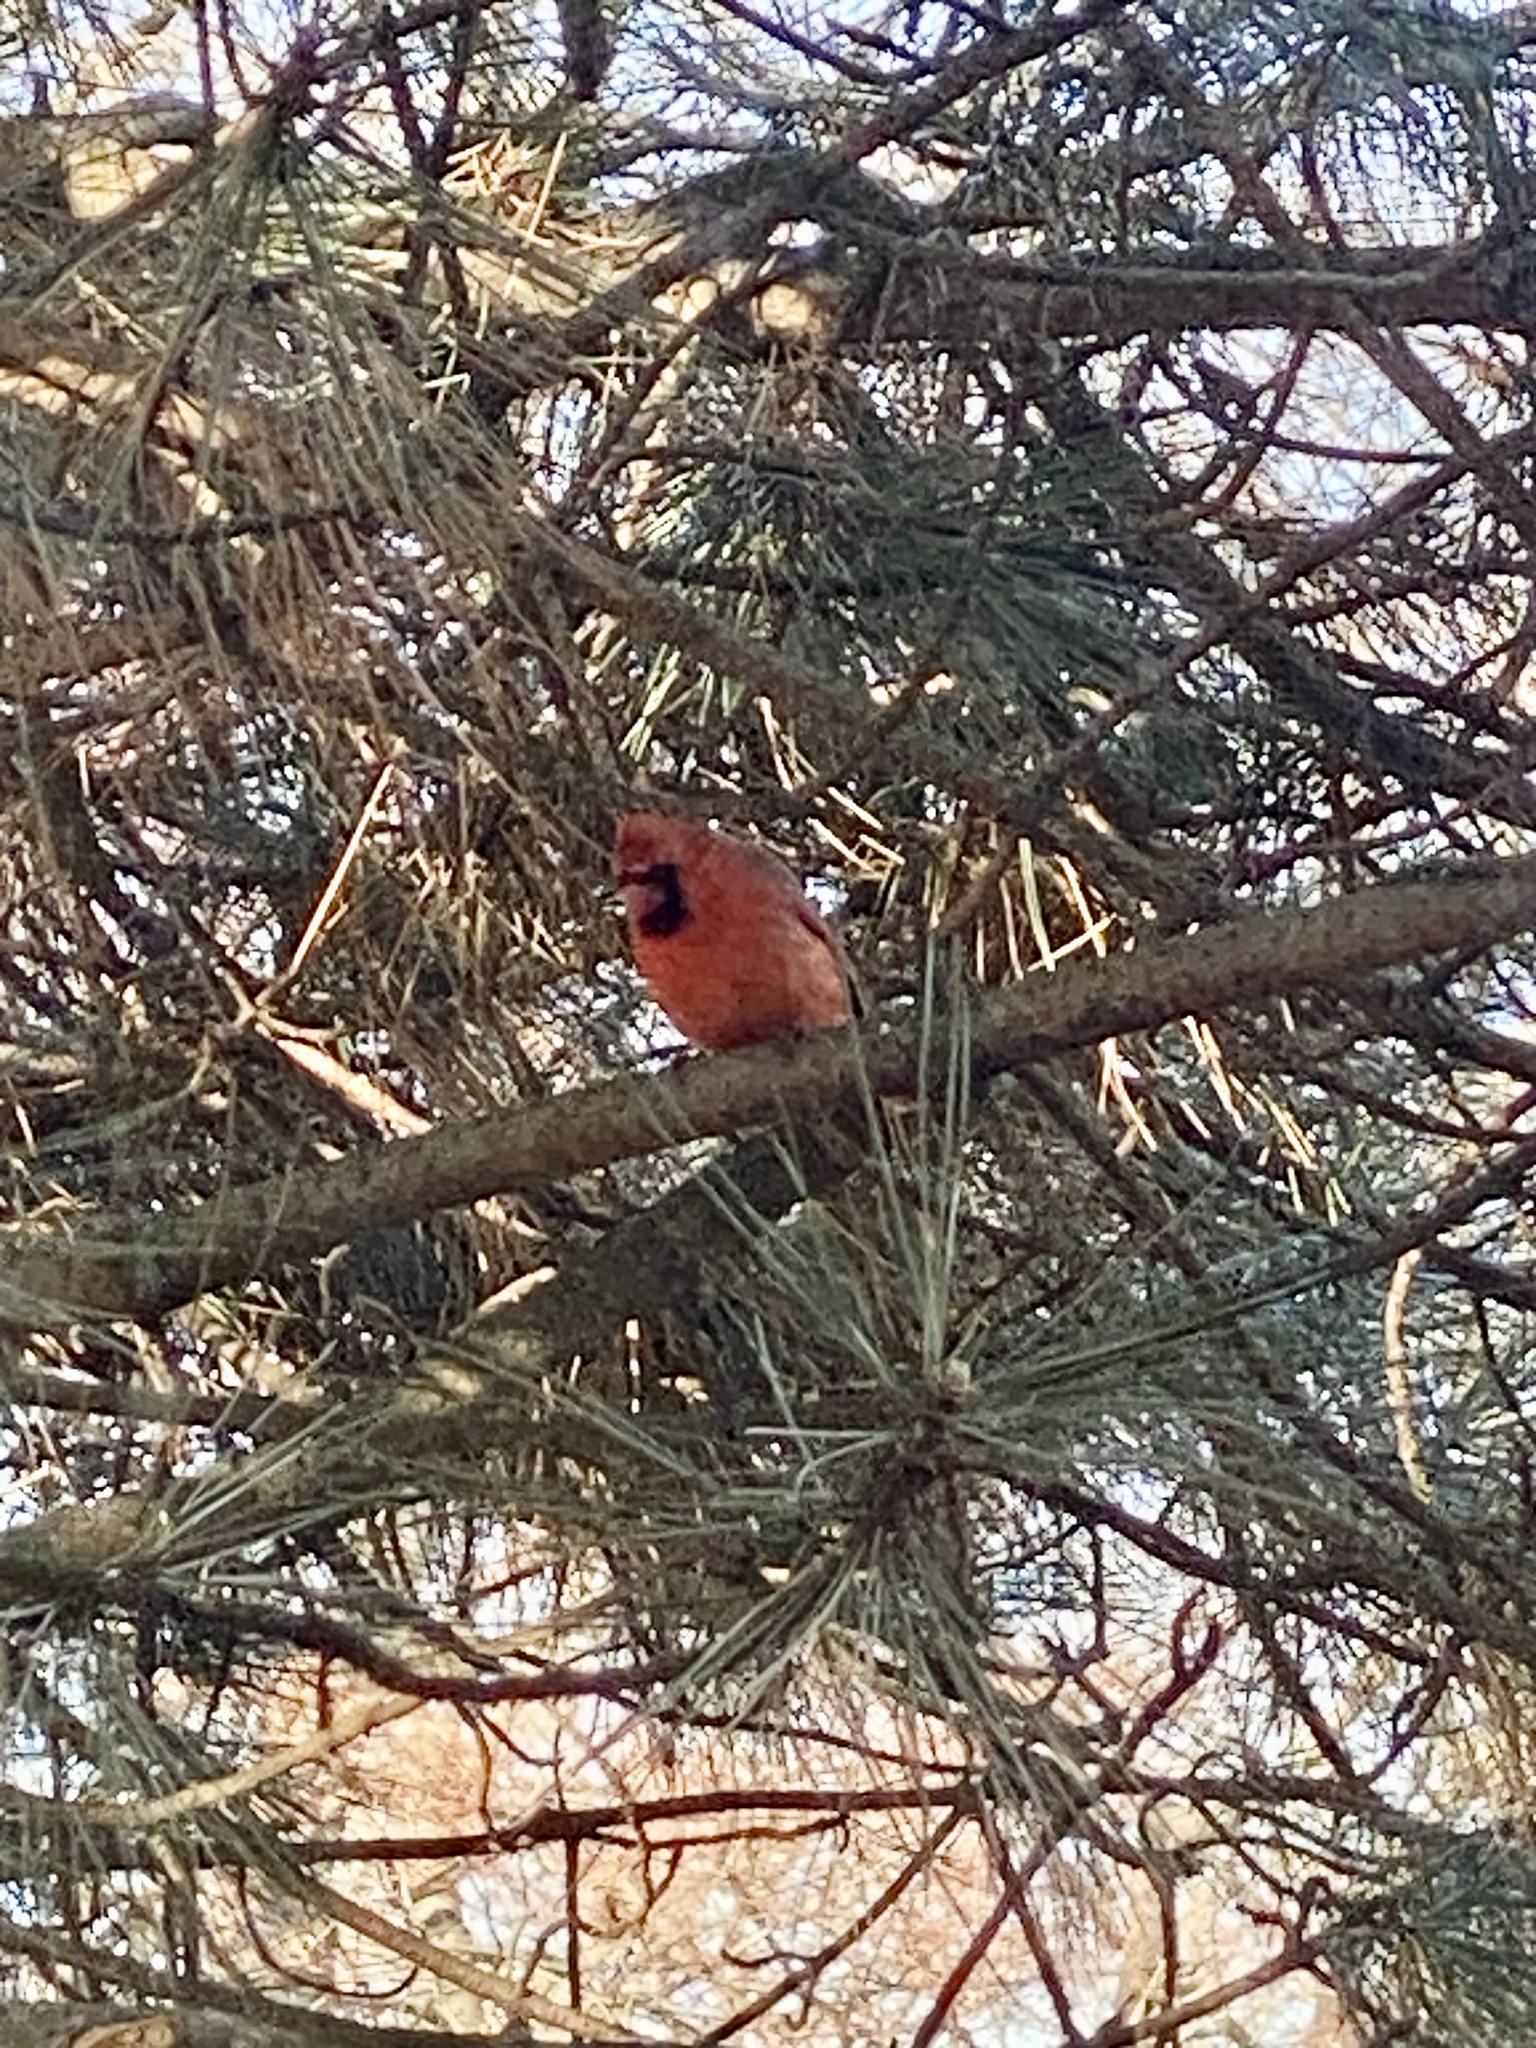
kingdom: Animalia
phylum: Chordata
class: Aves
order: Passeriformes
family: Cardinalidae
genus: Cardinalis
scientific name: Cardinalis cardinalis
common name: Northern cardinal
